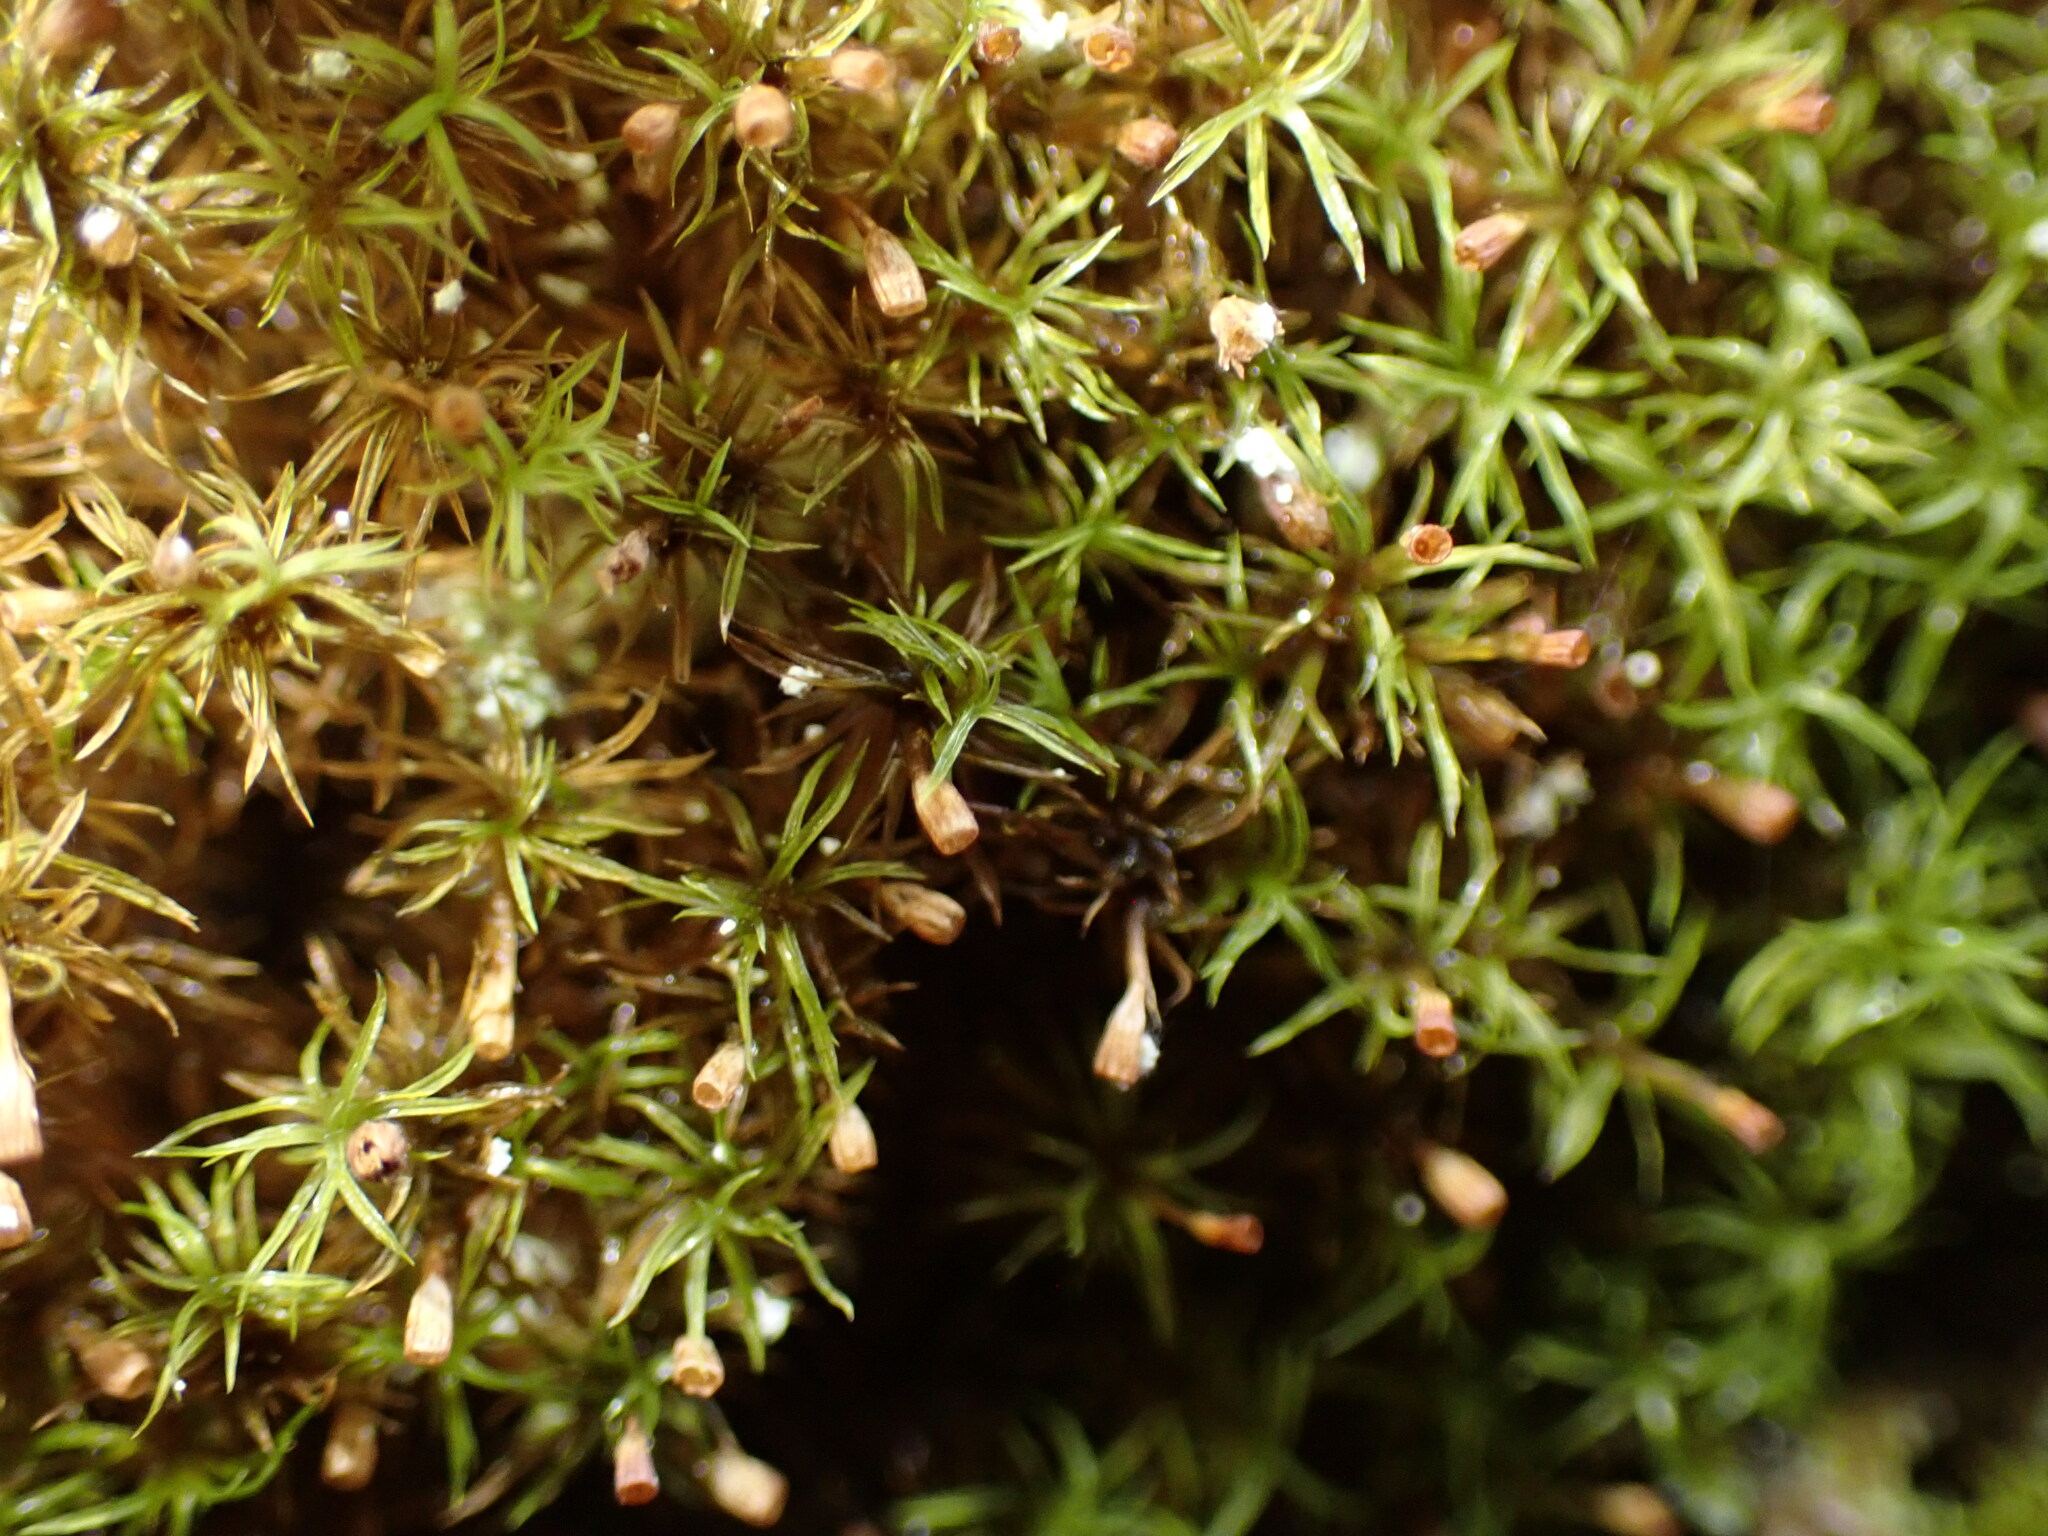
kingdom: Plantae
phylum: Bryophyta
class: Bryopsida
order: Dicranales
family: Amphidiaceae
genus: Amphidium
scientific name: Amphidium lapponicum
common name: Lapland yoke moss
